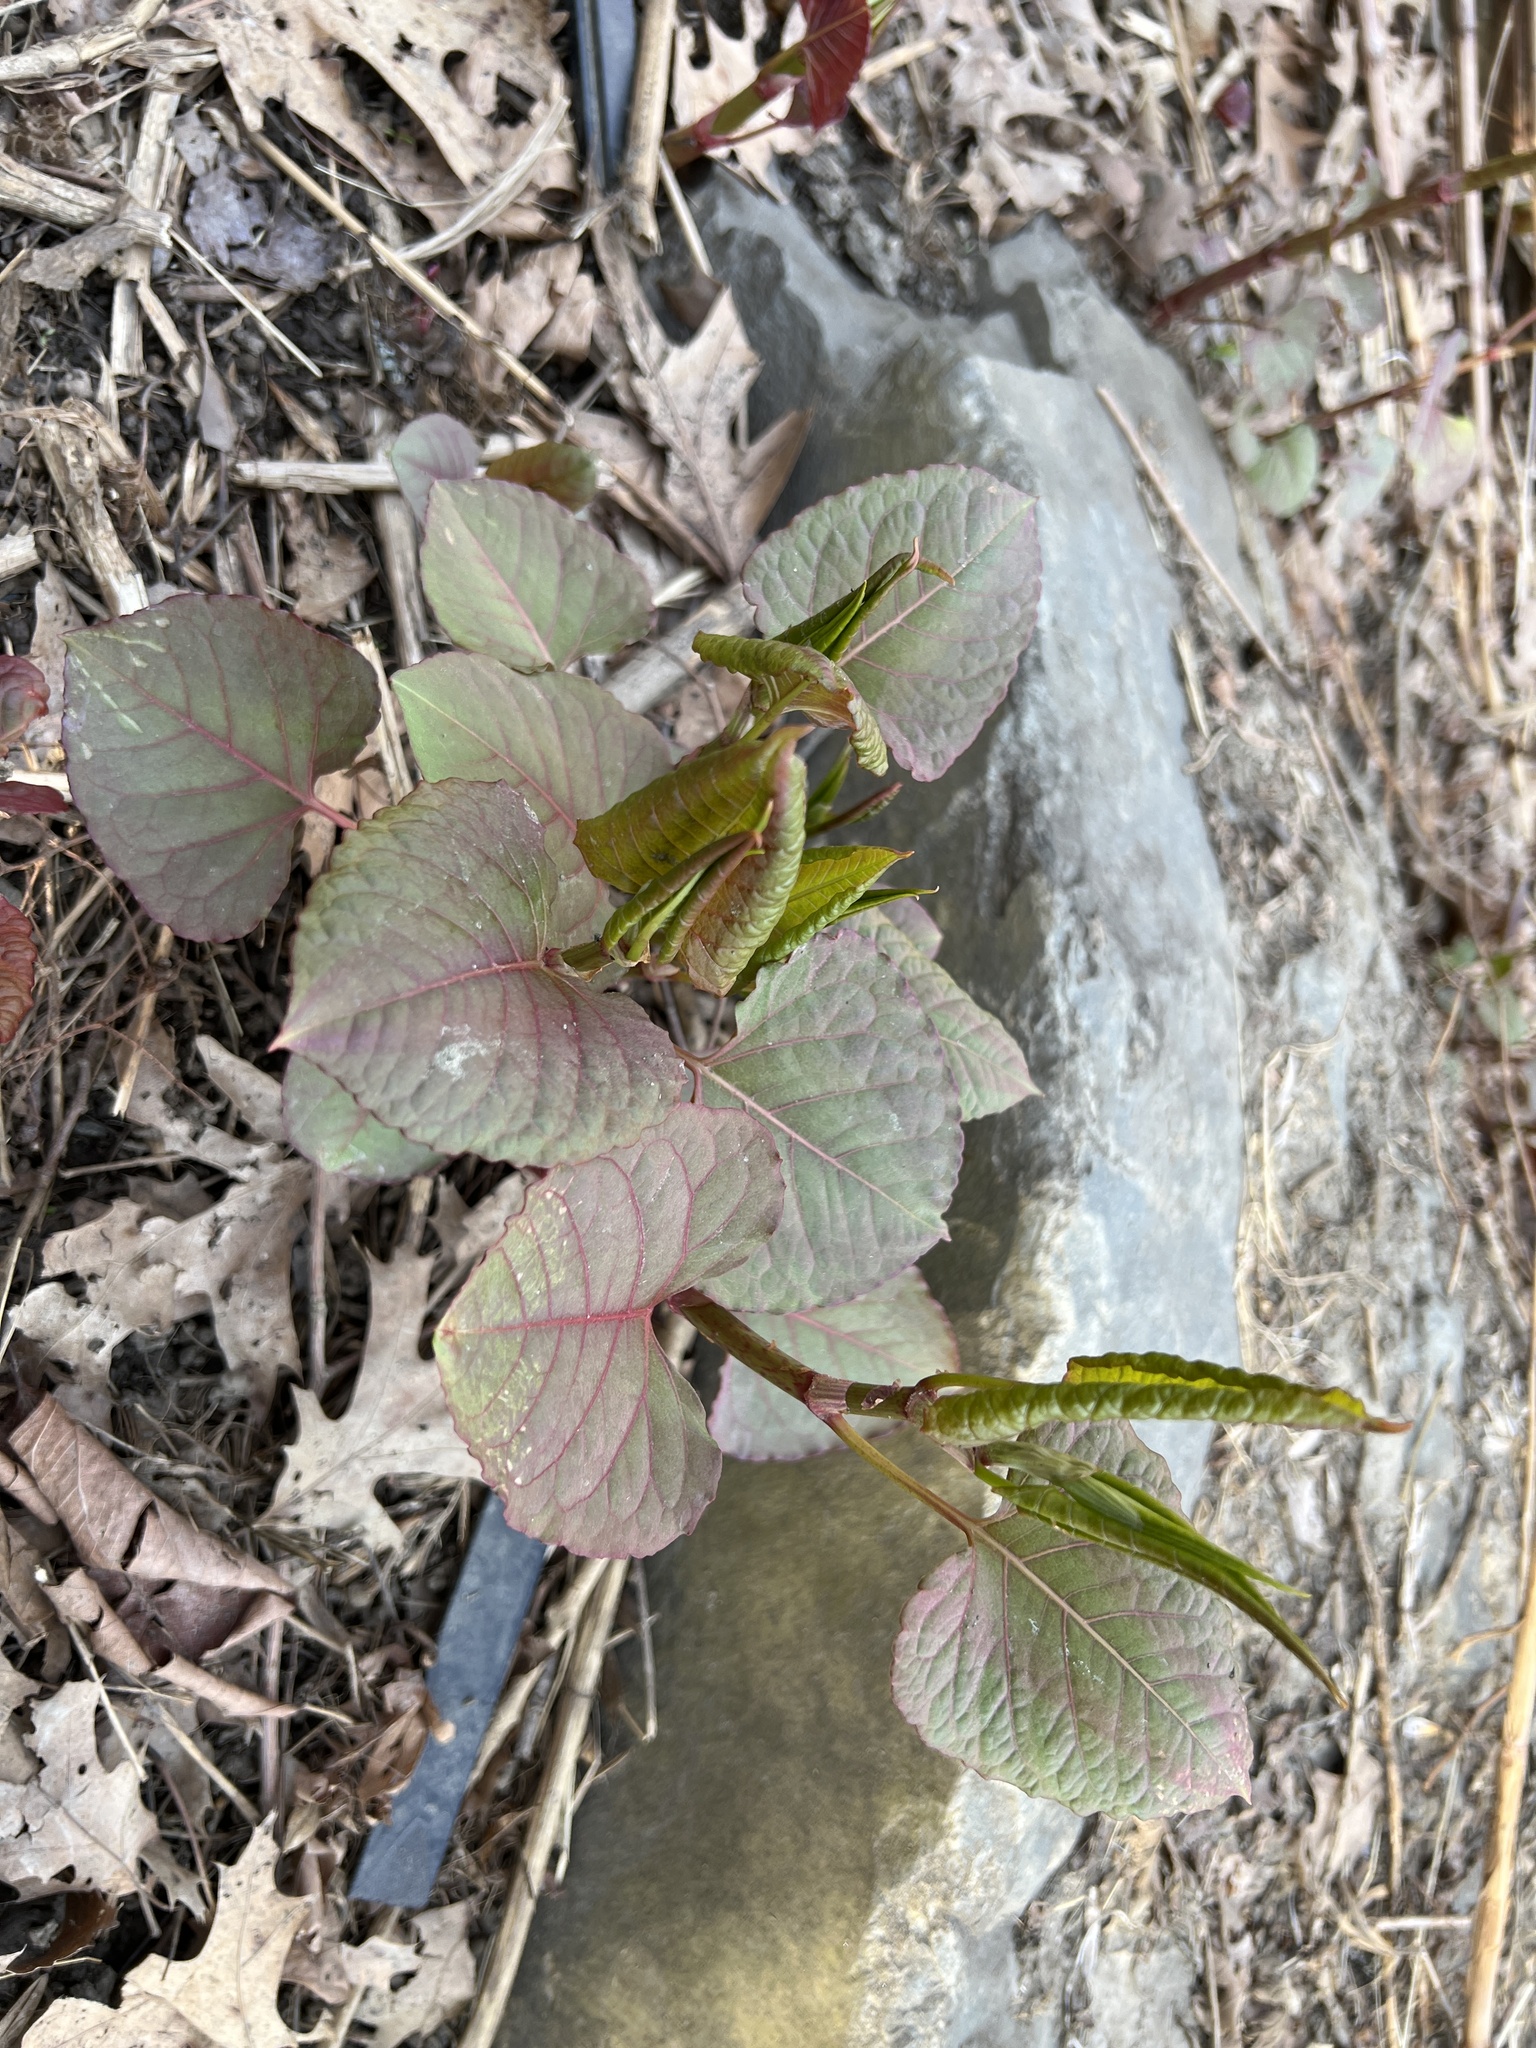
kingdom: Plantae
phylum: Tracheophyta
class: Magnoliopsida
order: Caryophyllales
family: Polygonaceae
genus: Reynoutria
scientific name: Reynoutria japonica
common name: Japanese knotweed
